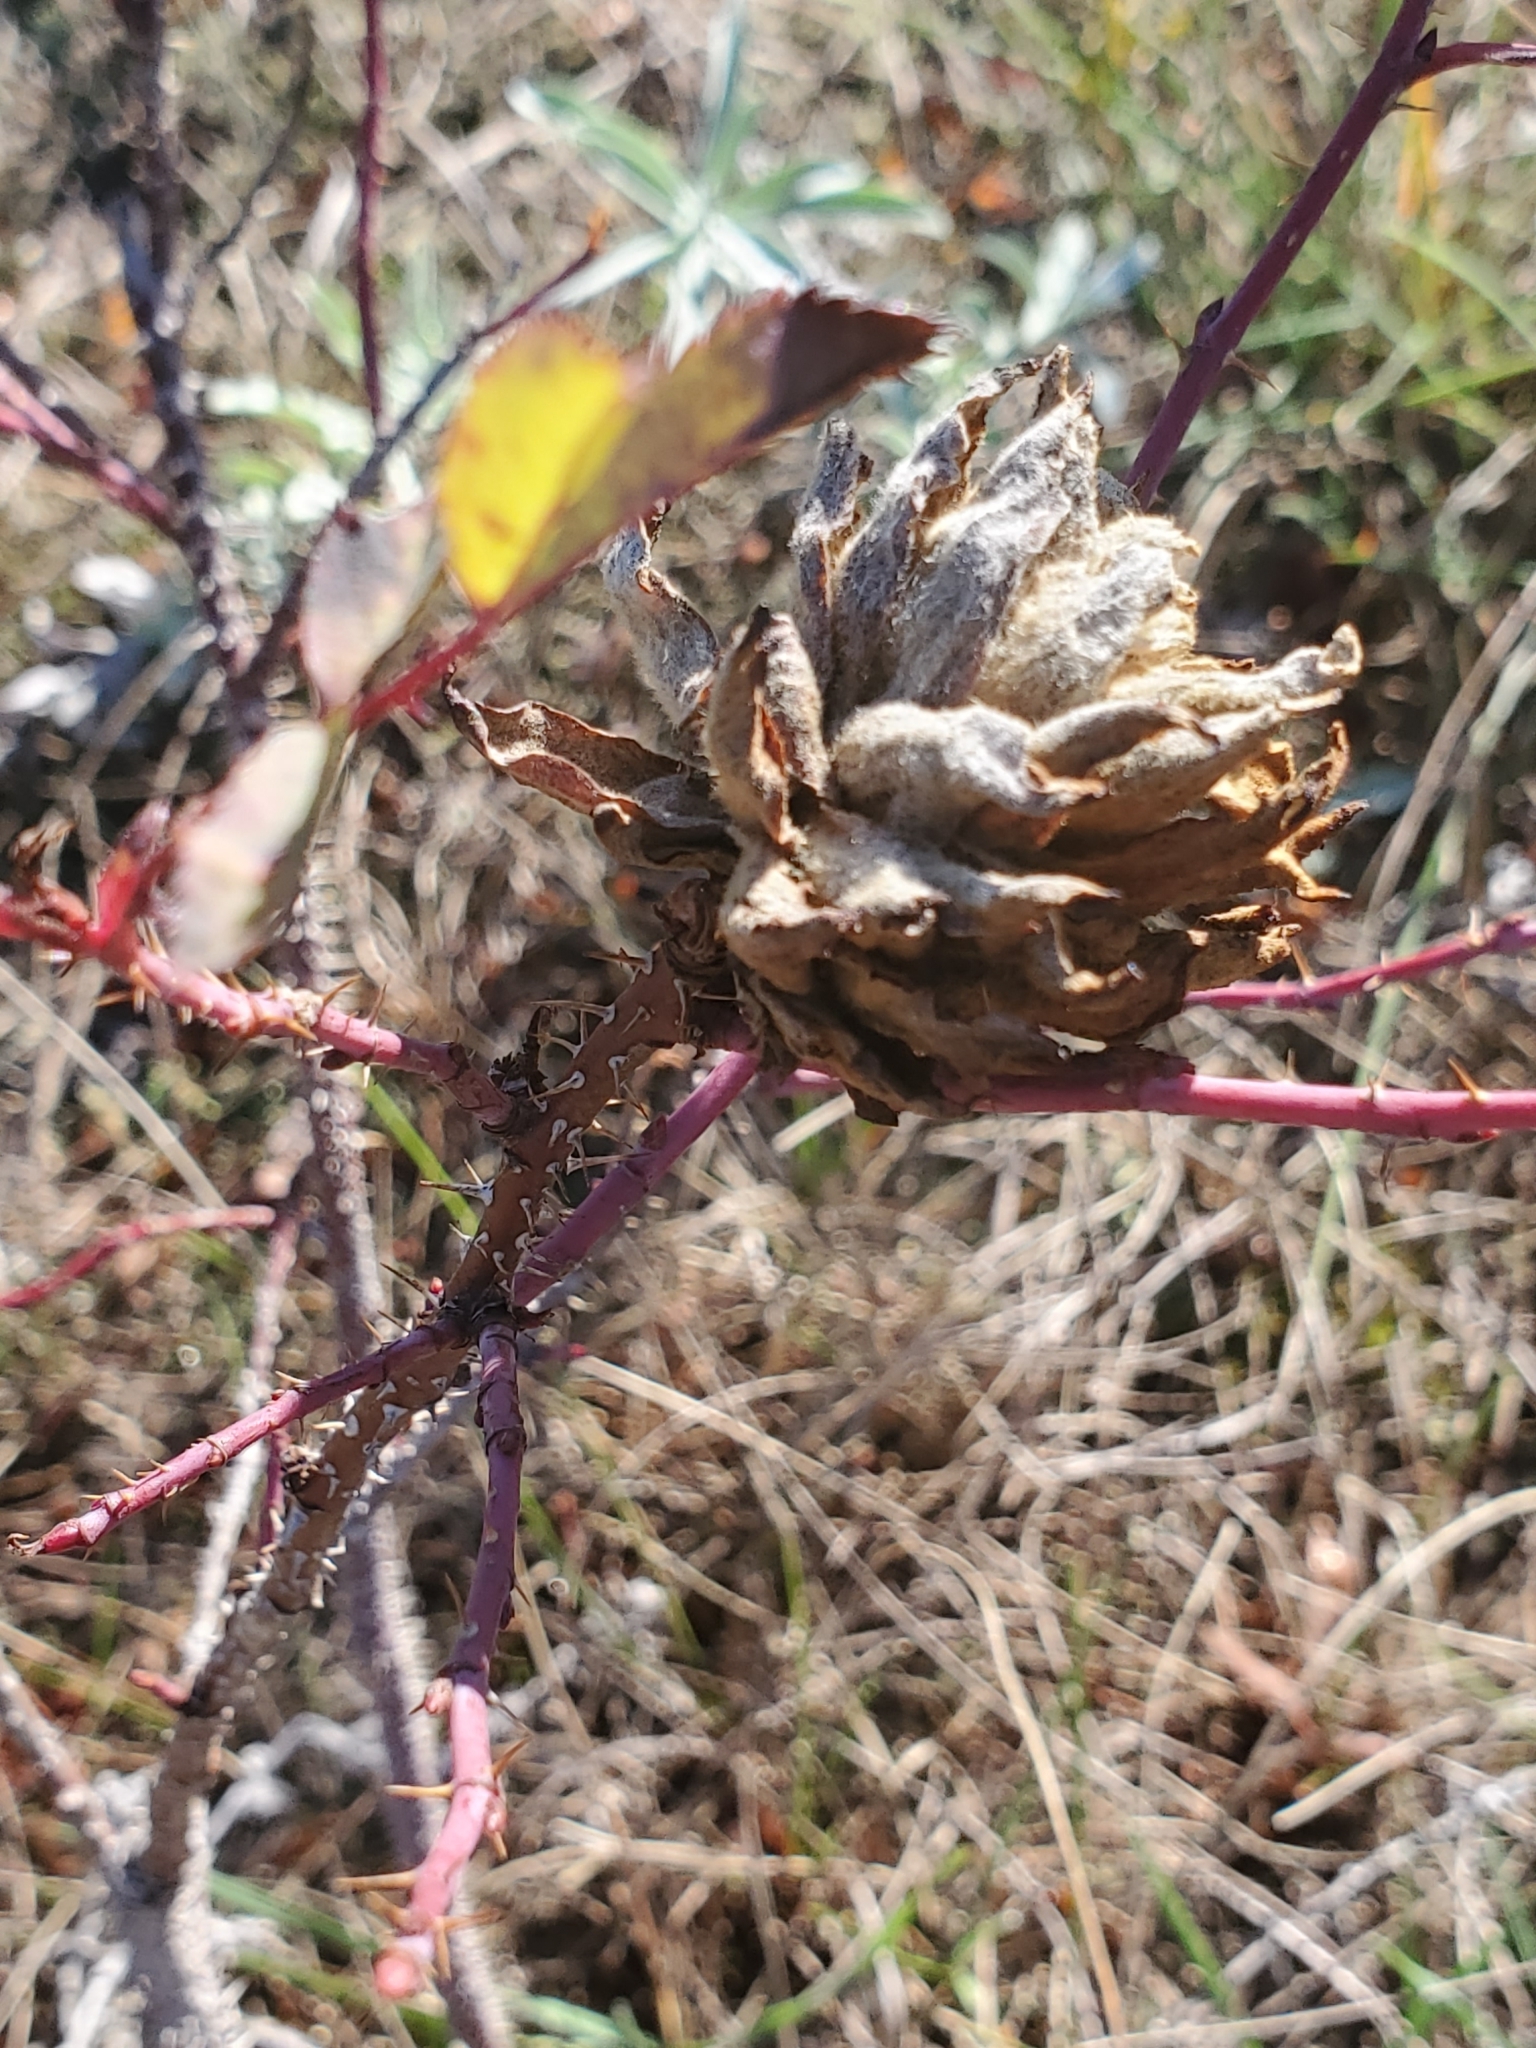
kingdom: Animalia
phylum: Arthropoda
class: Insecta
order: Diptera
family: Cecidomyiidae
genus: Rabdophaga
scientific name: Rabdophaga rosacea
